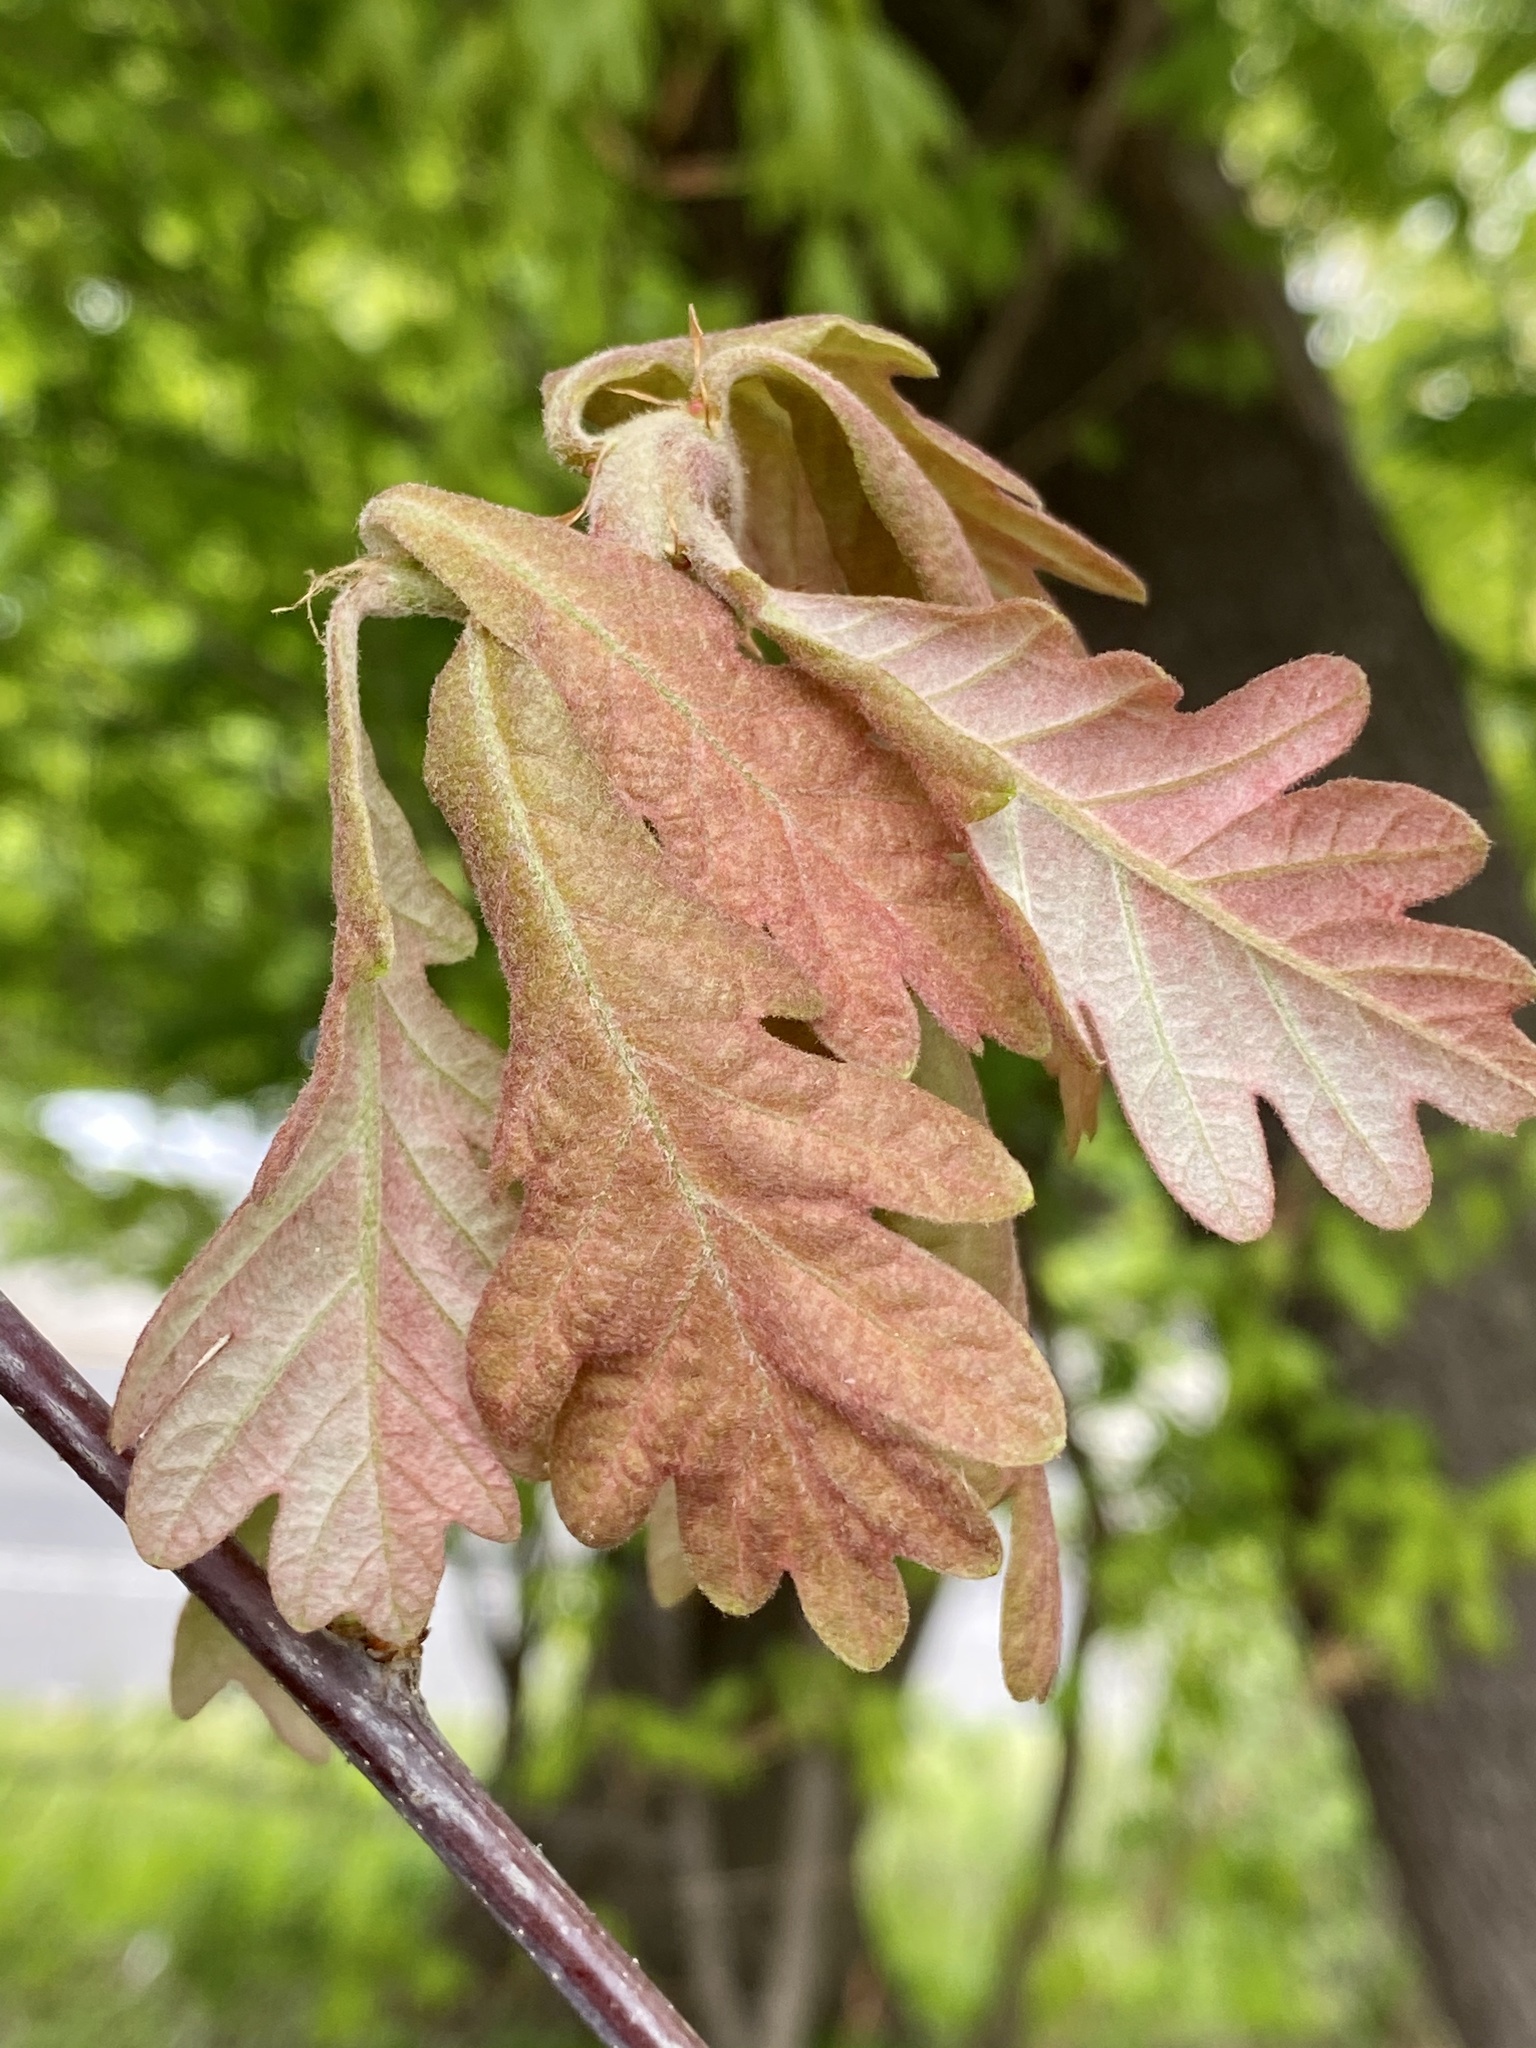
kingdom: Plantae
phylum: Tracheophyta
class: Magnoliopsida
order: Fagales
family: Fagaceae
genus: Quercus
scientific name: Quercus alba
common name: White oak
